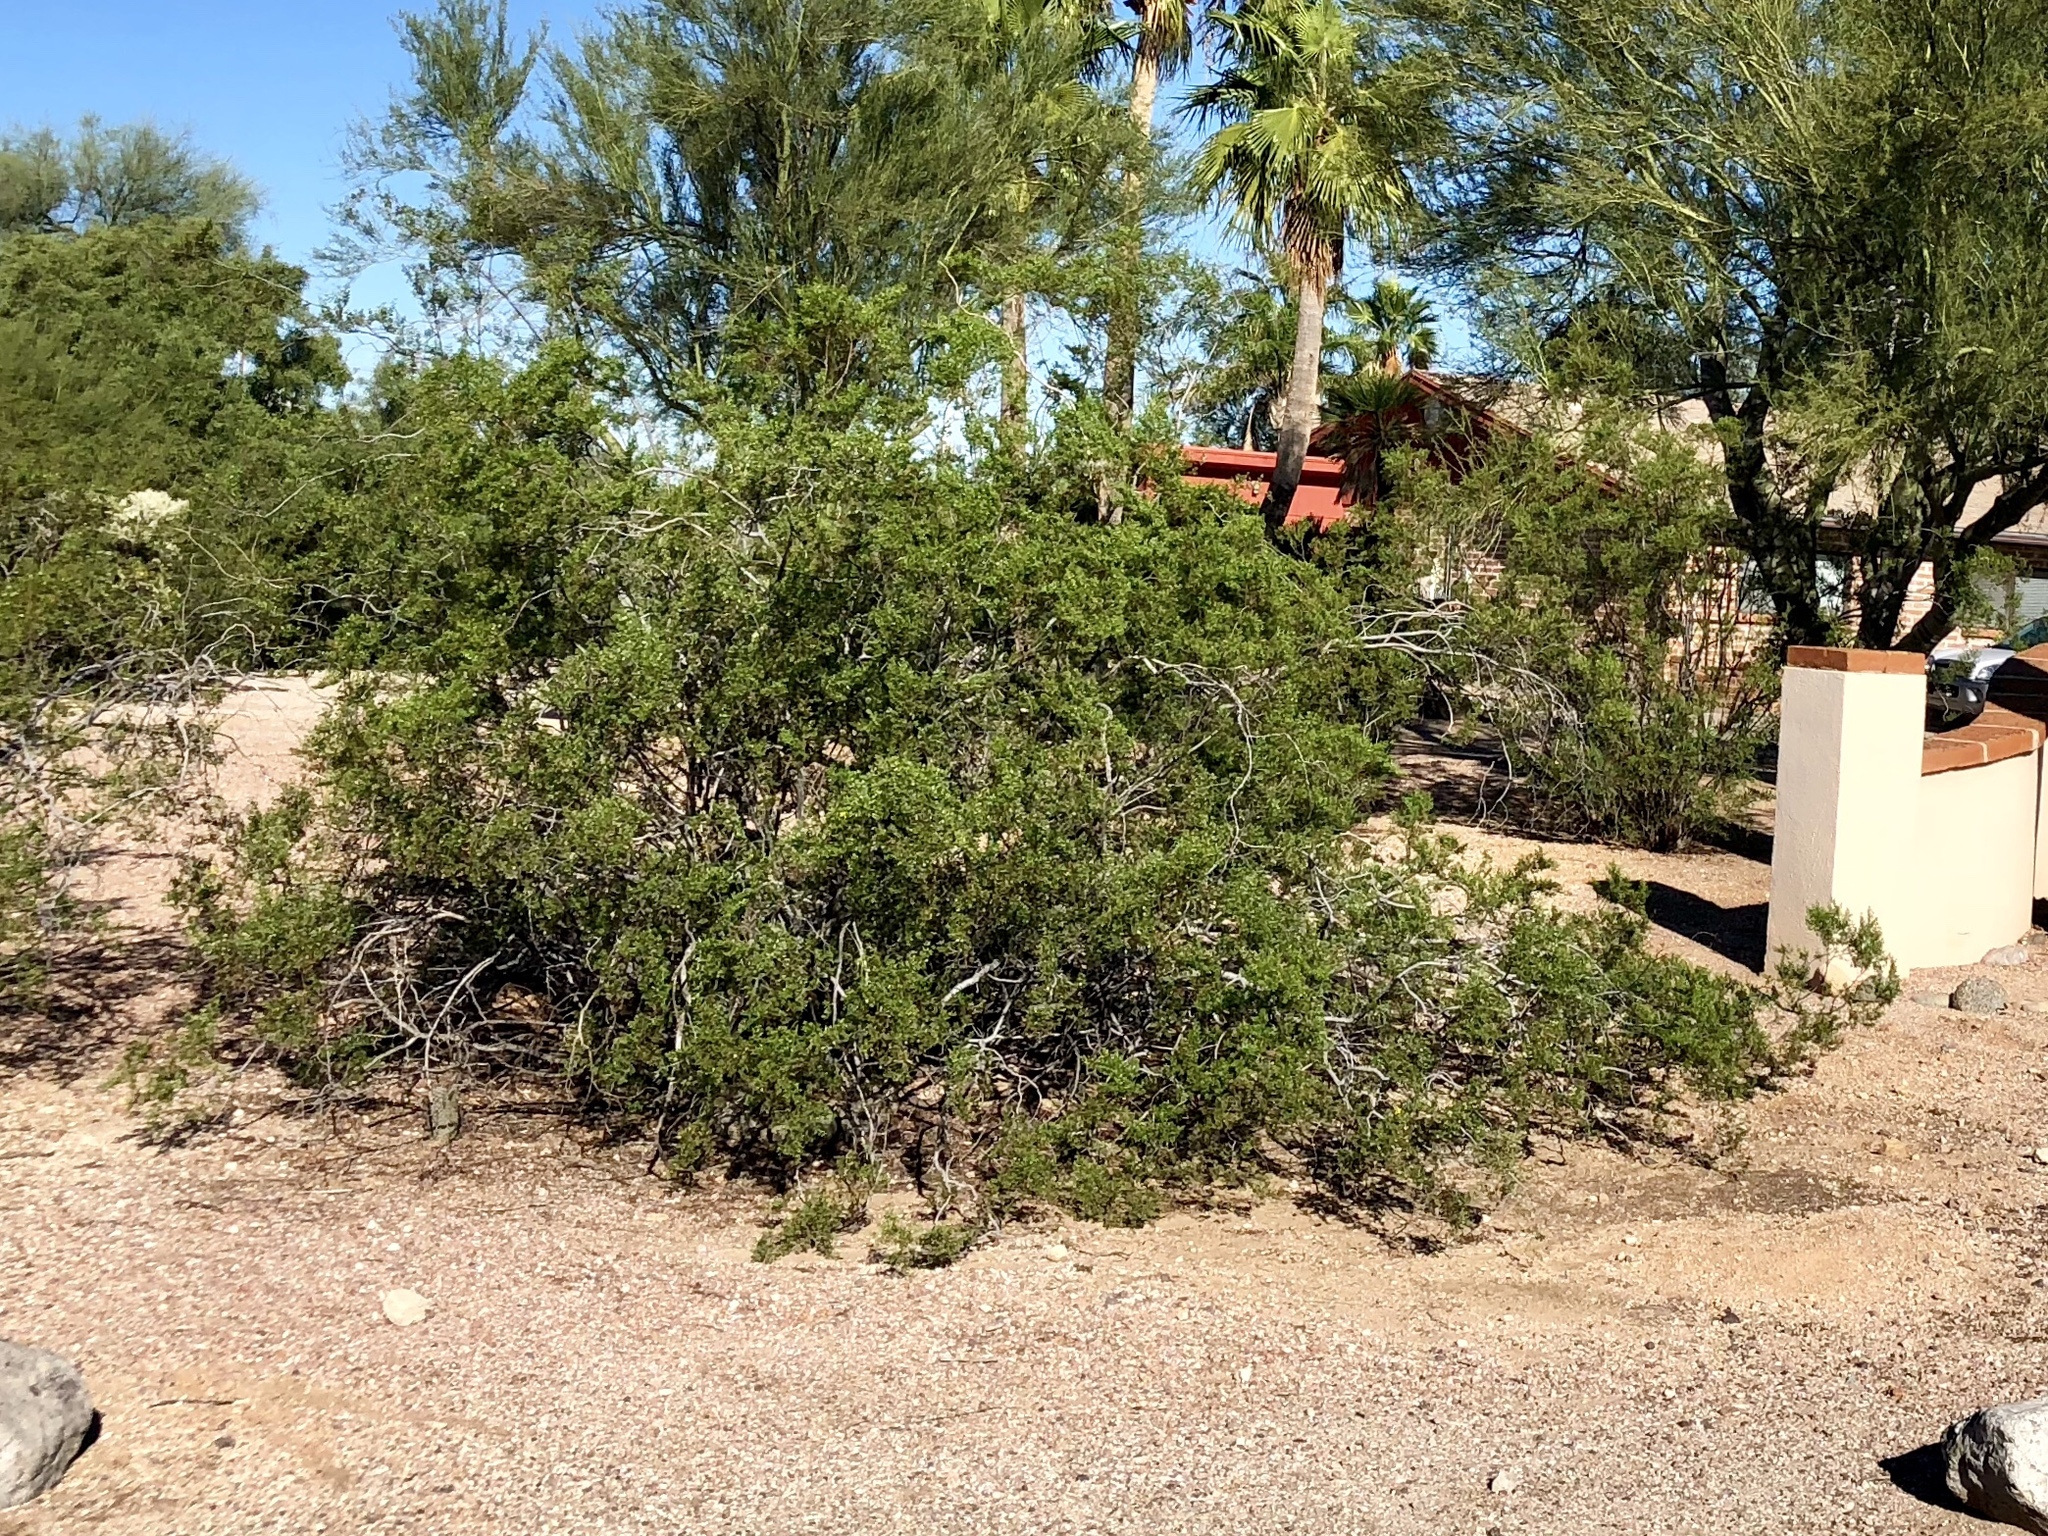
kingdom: Plantae
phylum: Tracheophyta
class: Magnoliopsida
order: Zygophyllales
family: Zygophyllaceae
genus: Larrea
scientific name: Larrea tridentata
